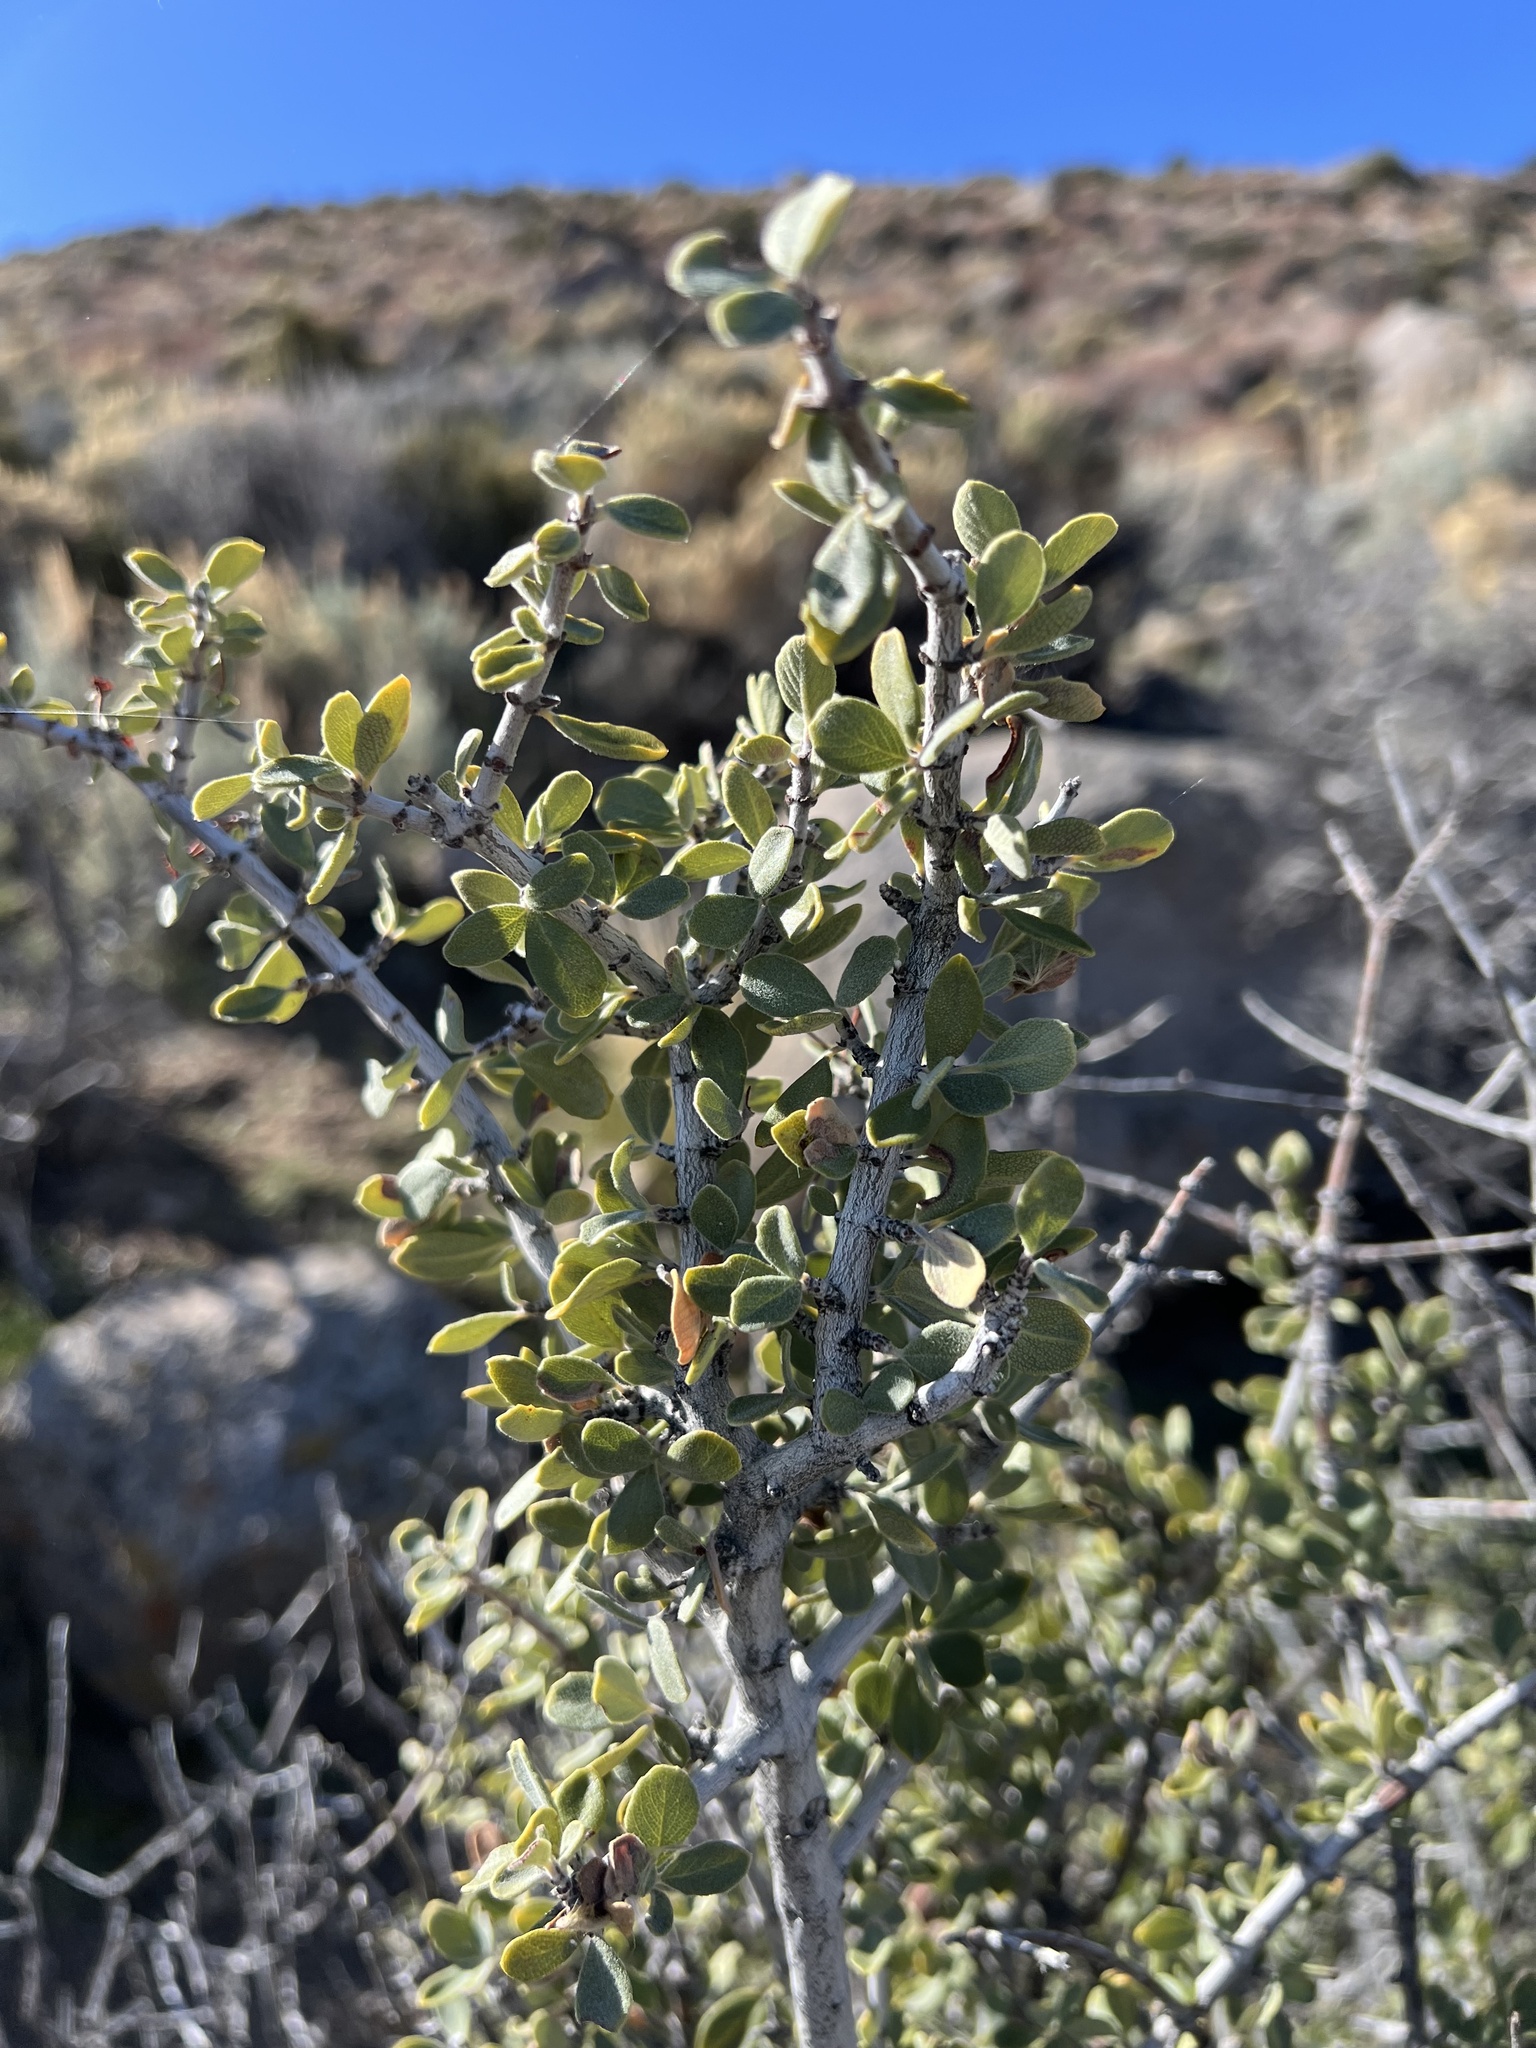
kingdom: Plantae
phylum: Tracheophyta
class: Magnoliopsida
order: Rosales
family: Rhamnaceae
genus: Ceanothus
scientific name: Ceanothus pauciflorus
